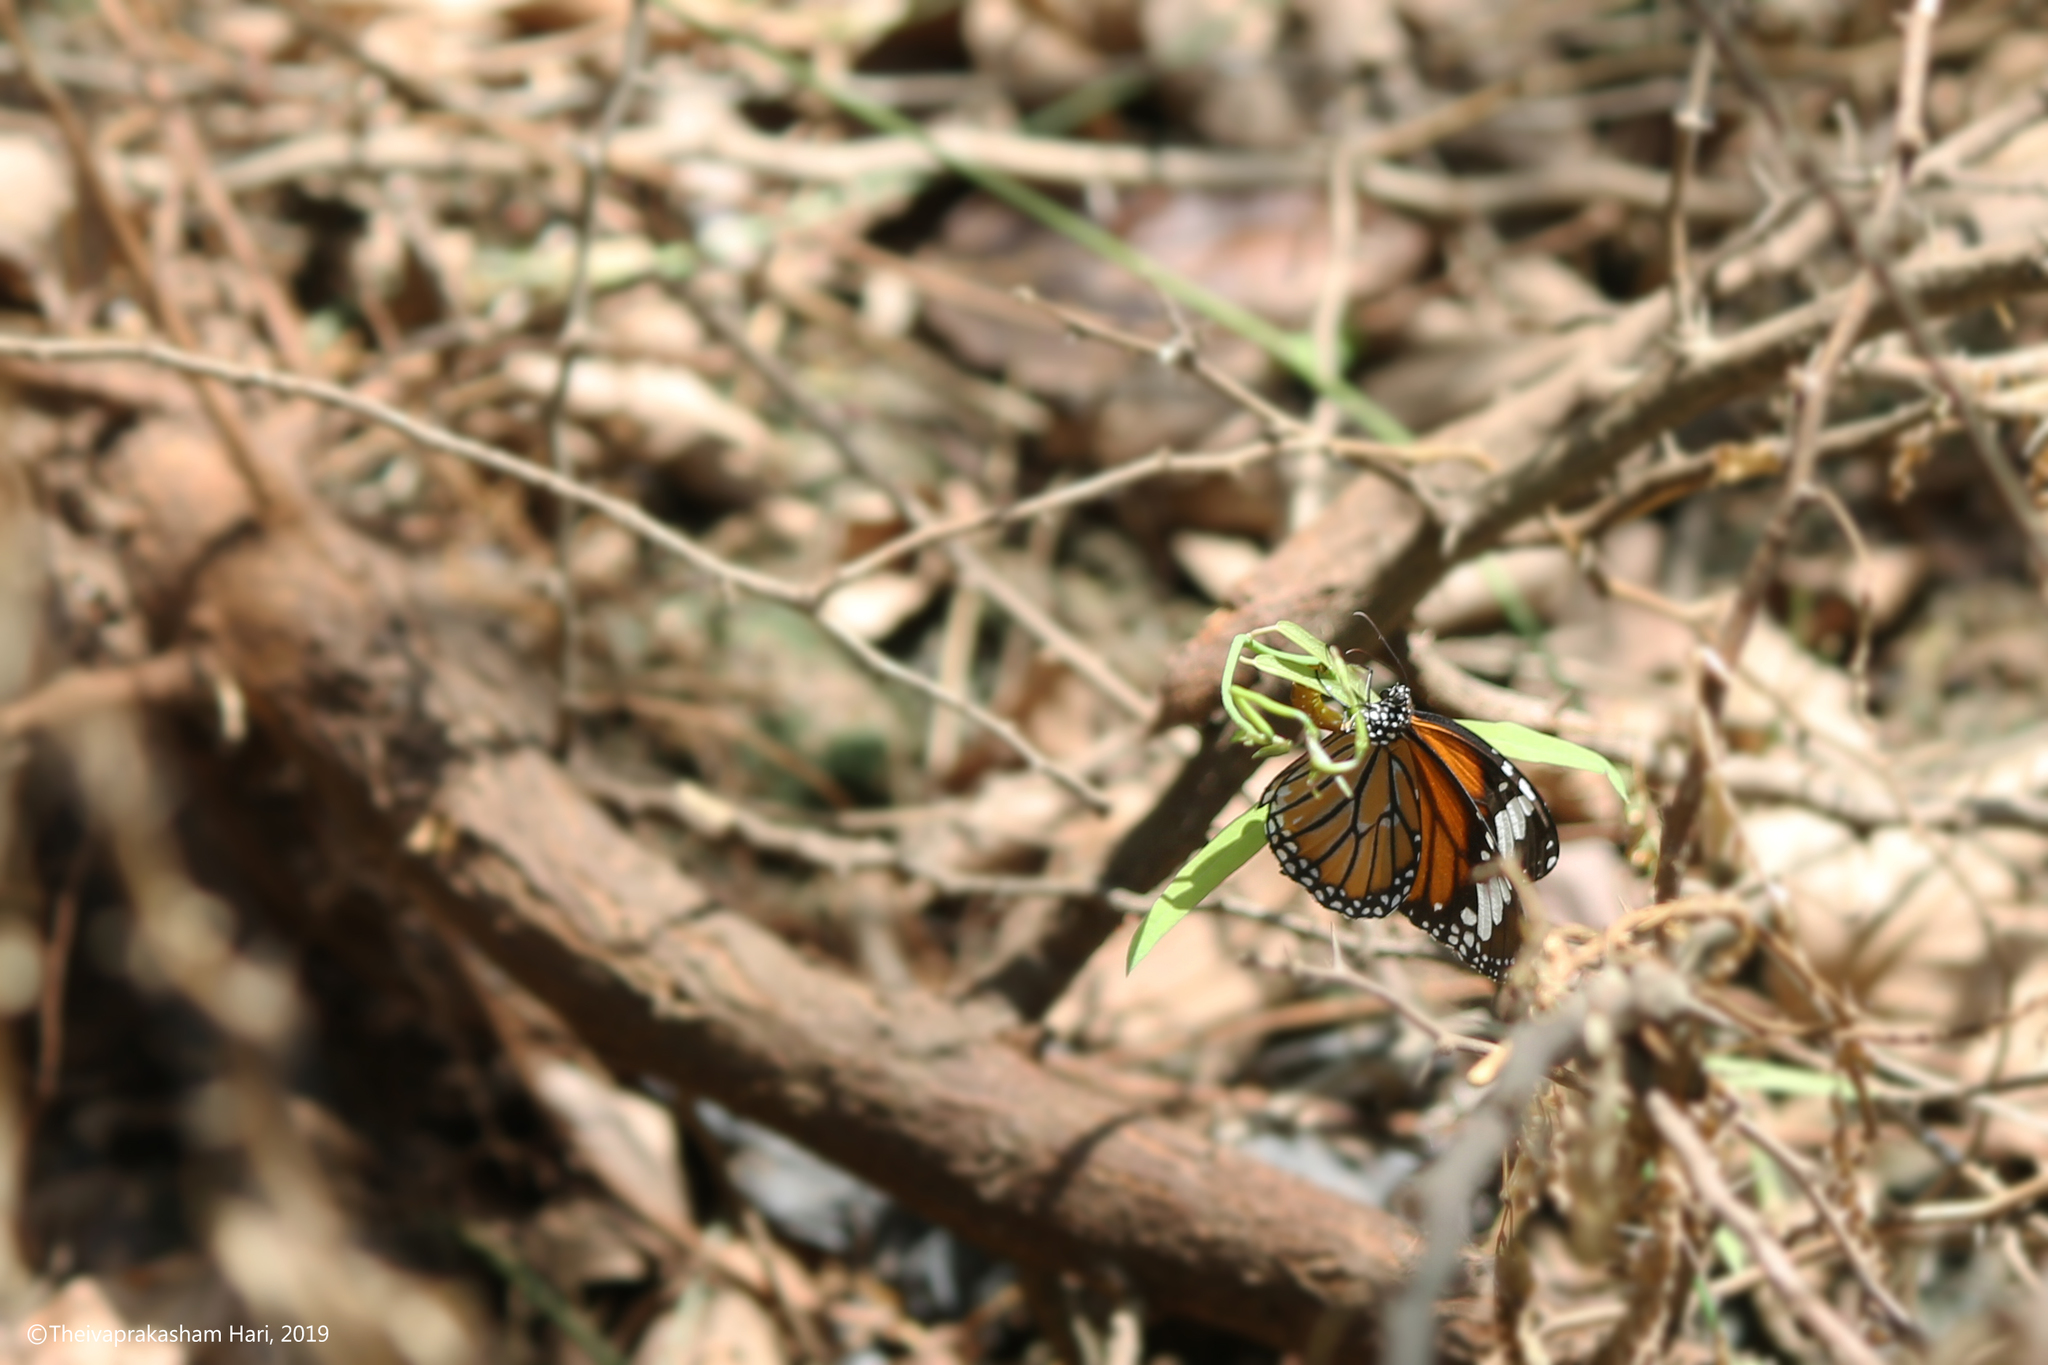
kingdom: Animalia
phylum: Arthropoda
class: Insecta
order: Lepidoptera
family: Nymphalidae
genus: Danaus
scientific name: Danaus genutia
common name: Common tiger butterfly
